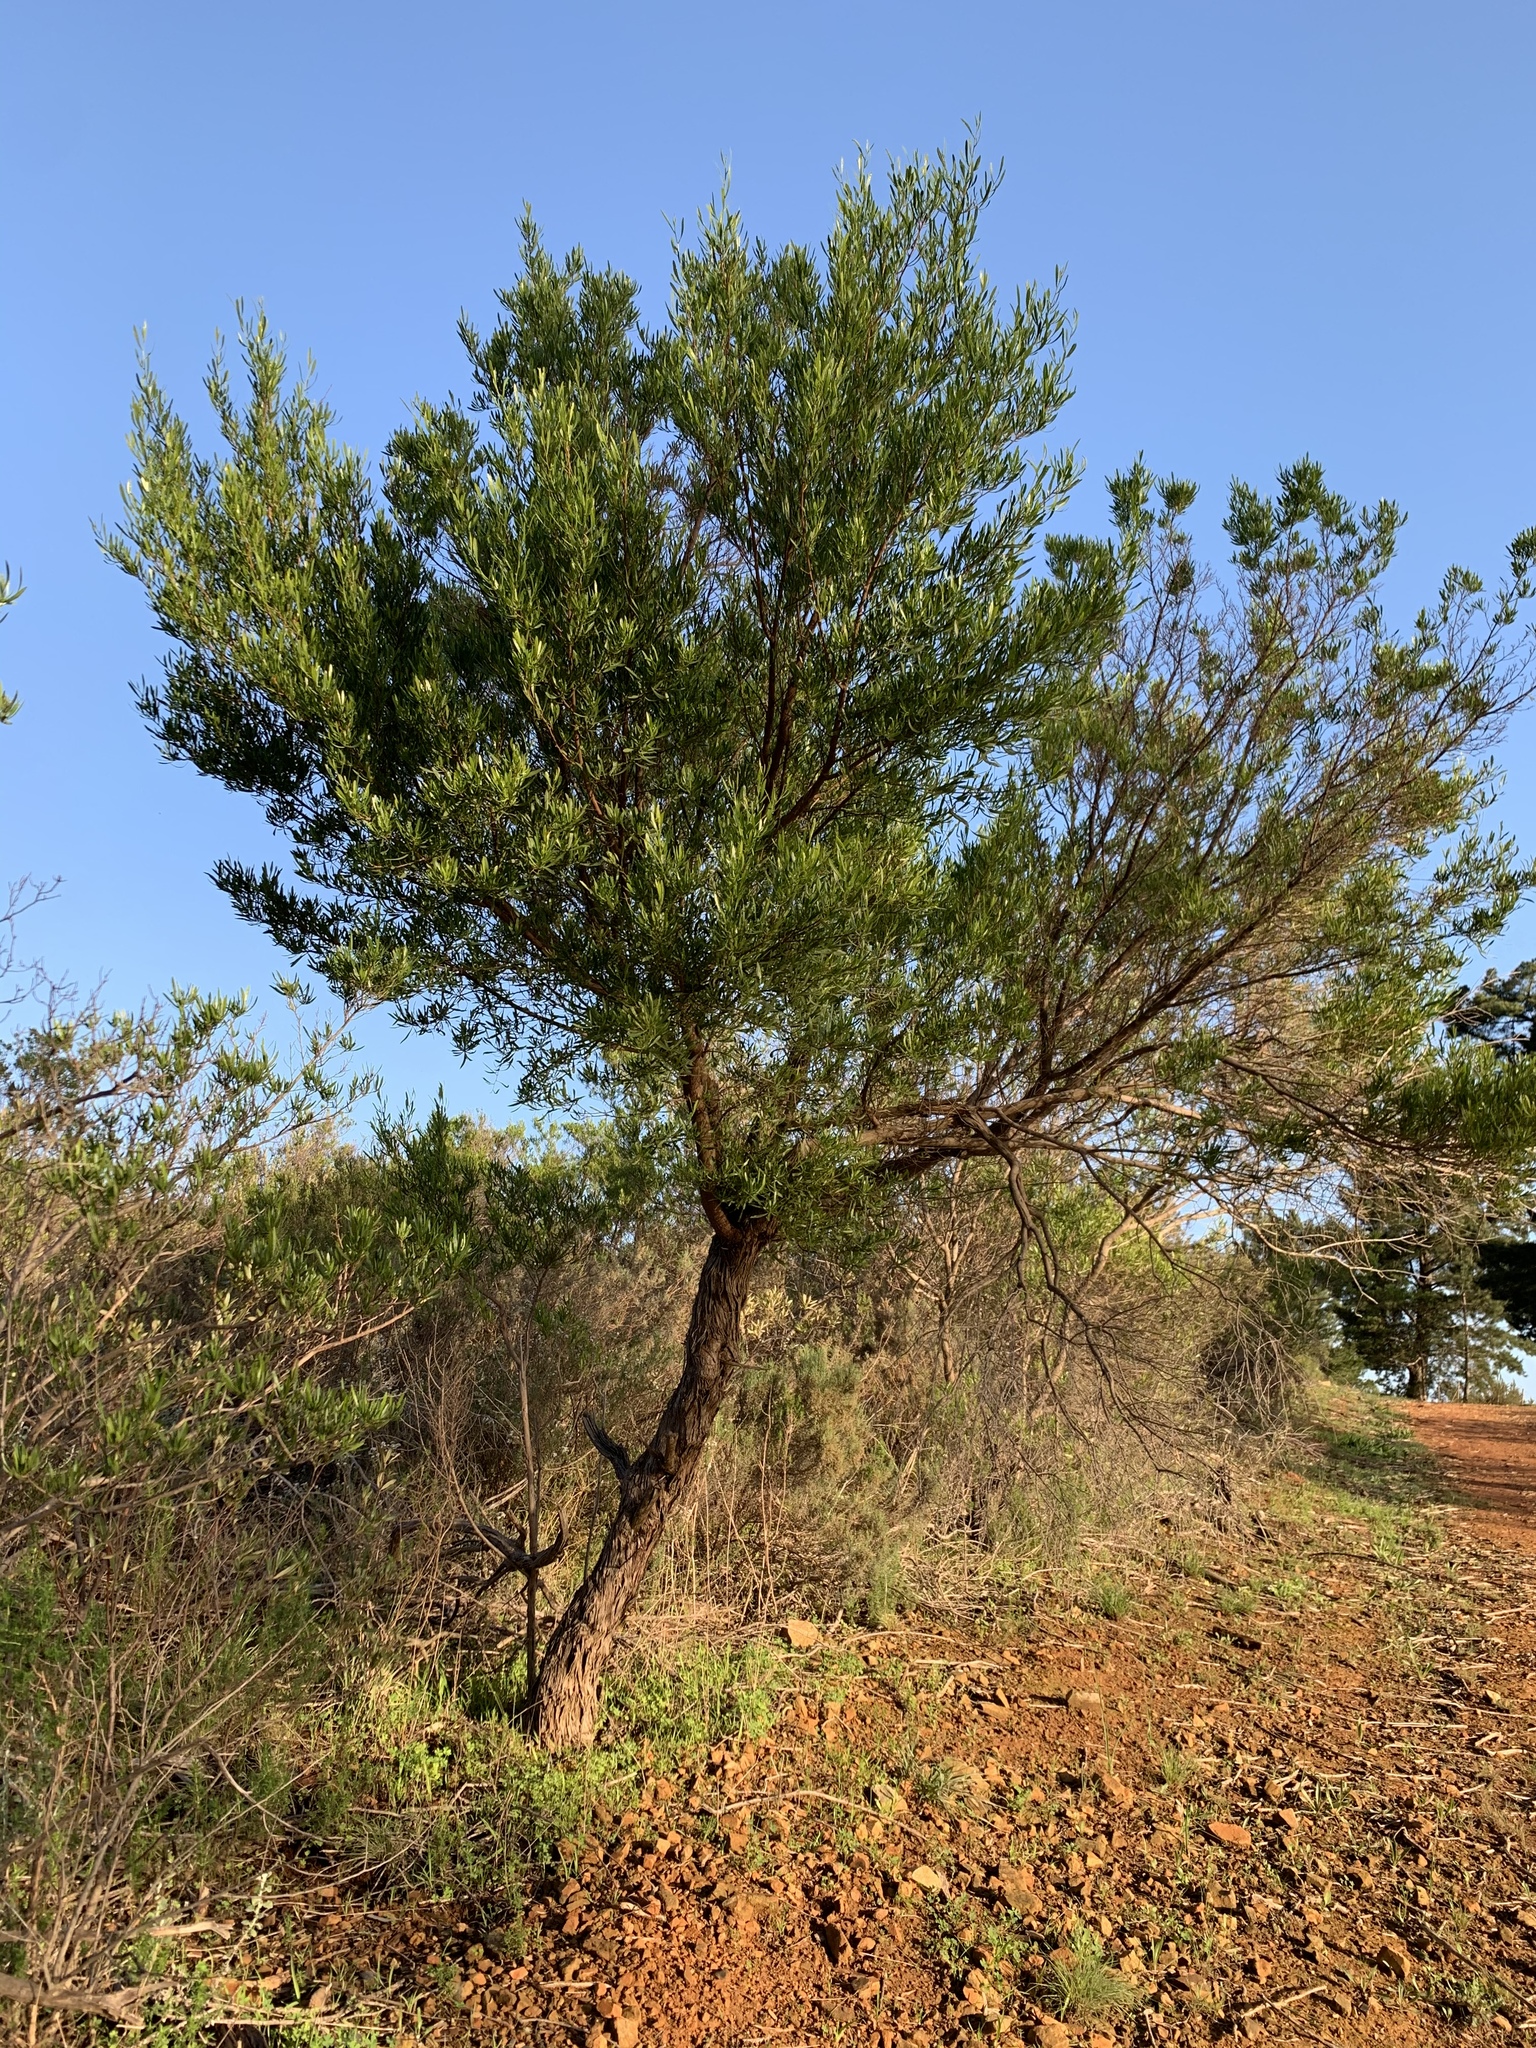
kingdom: Plantae
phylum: Tracheophyta
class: Magnoliopsida
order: Sapindales
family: Sapindaceae
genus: Dodonaea
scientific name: Dodonaea viscosa
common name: Hopbush
